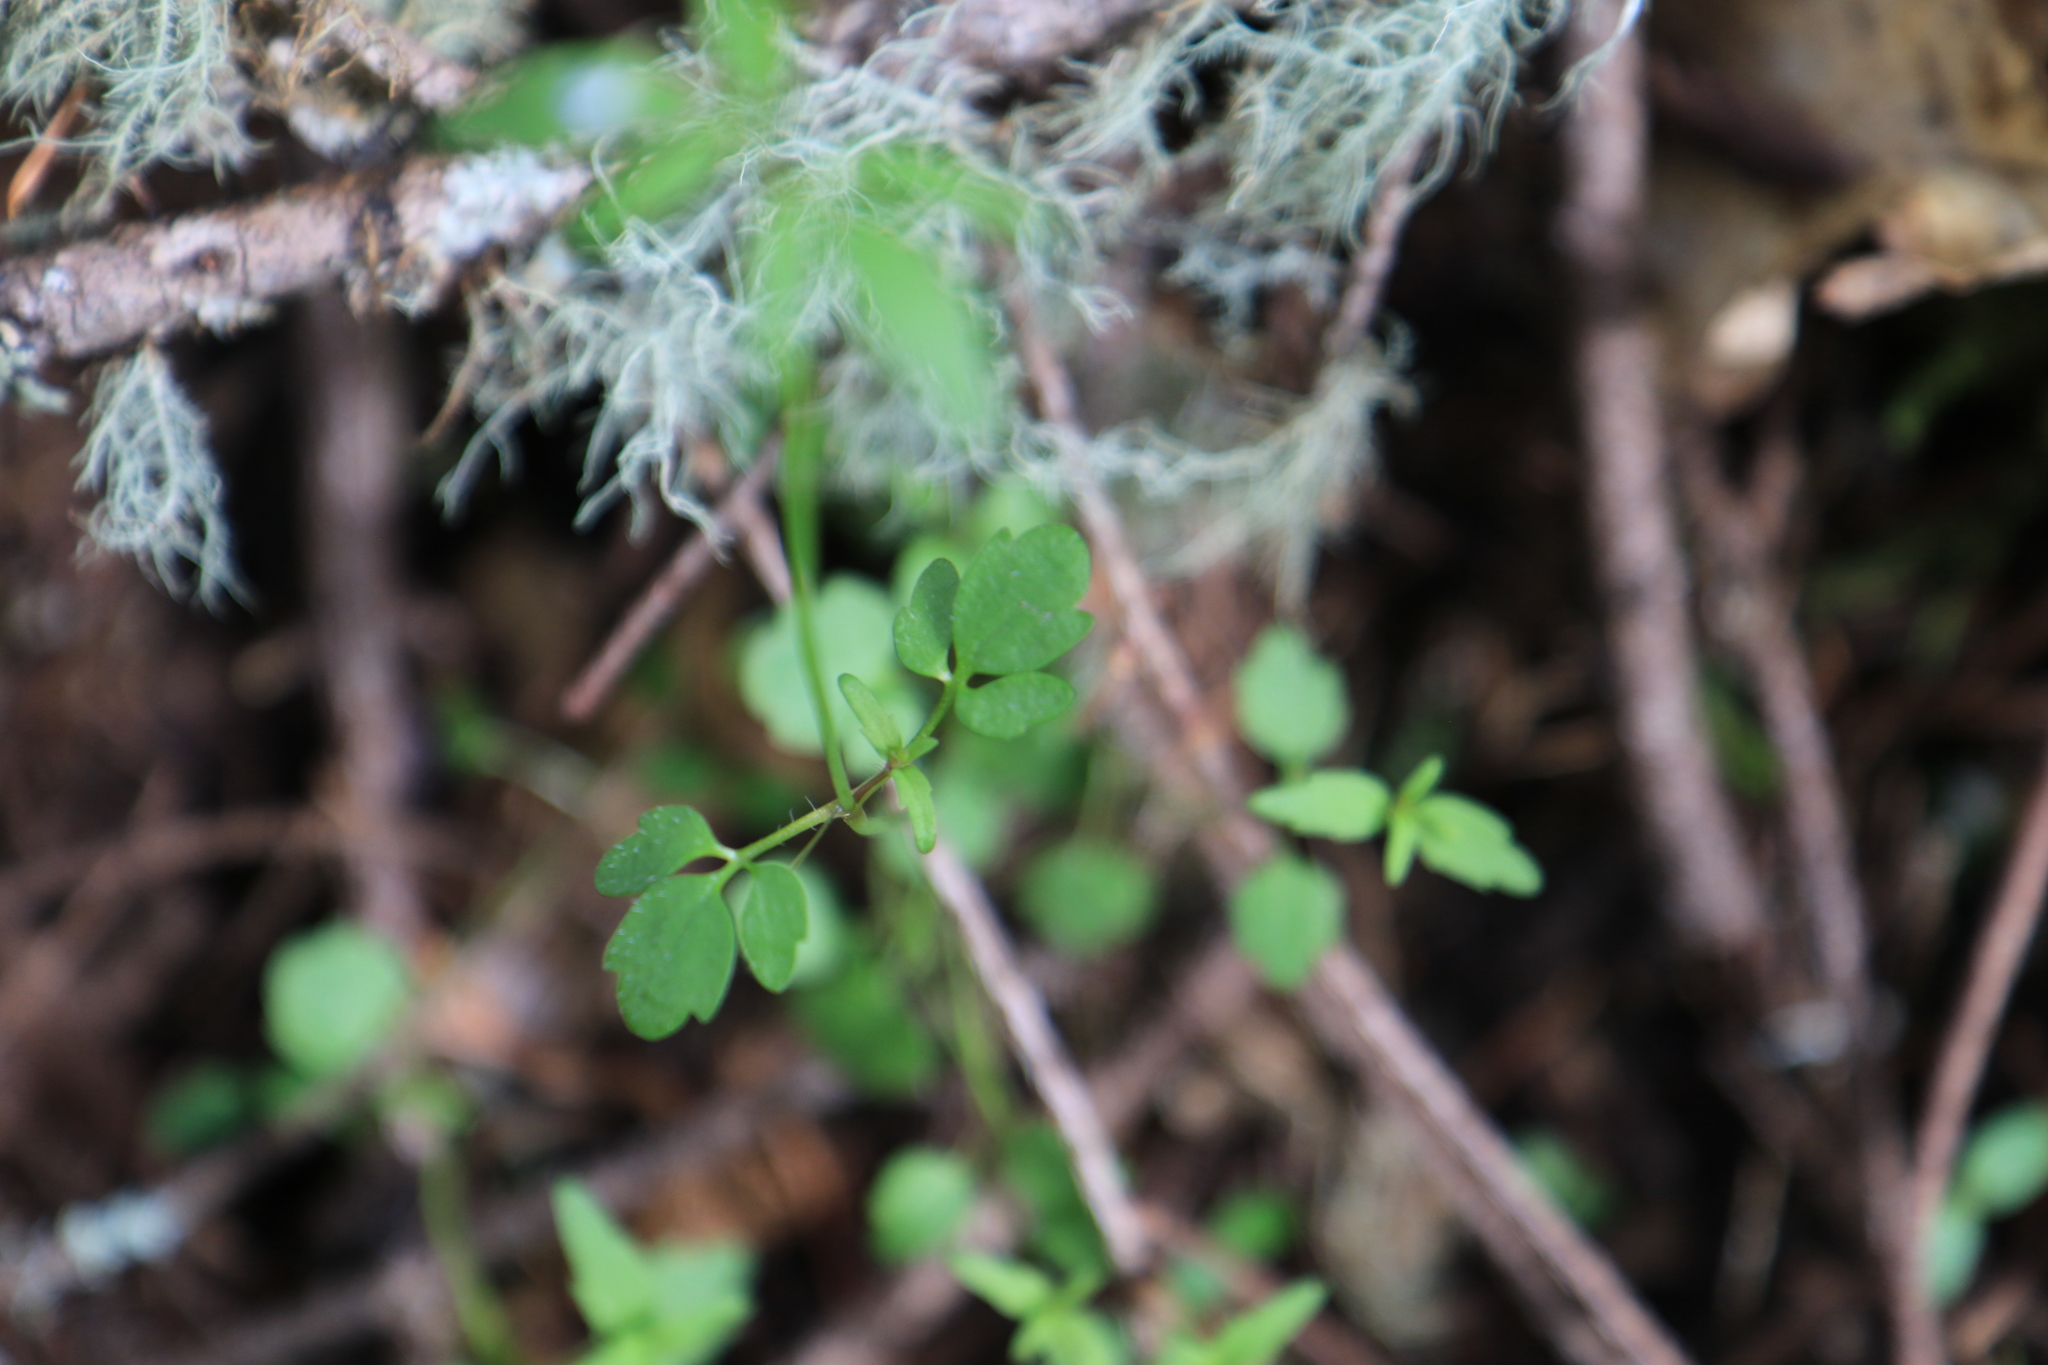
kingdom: Plantae
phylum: Tracheophyta
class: Magnoliopsida
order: Lamiales
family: Plantaginaceae
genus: Tonella
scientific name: Tonella tenella
